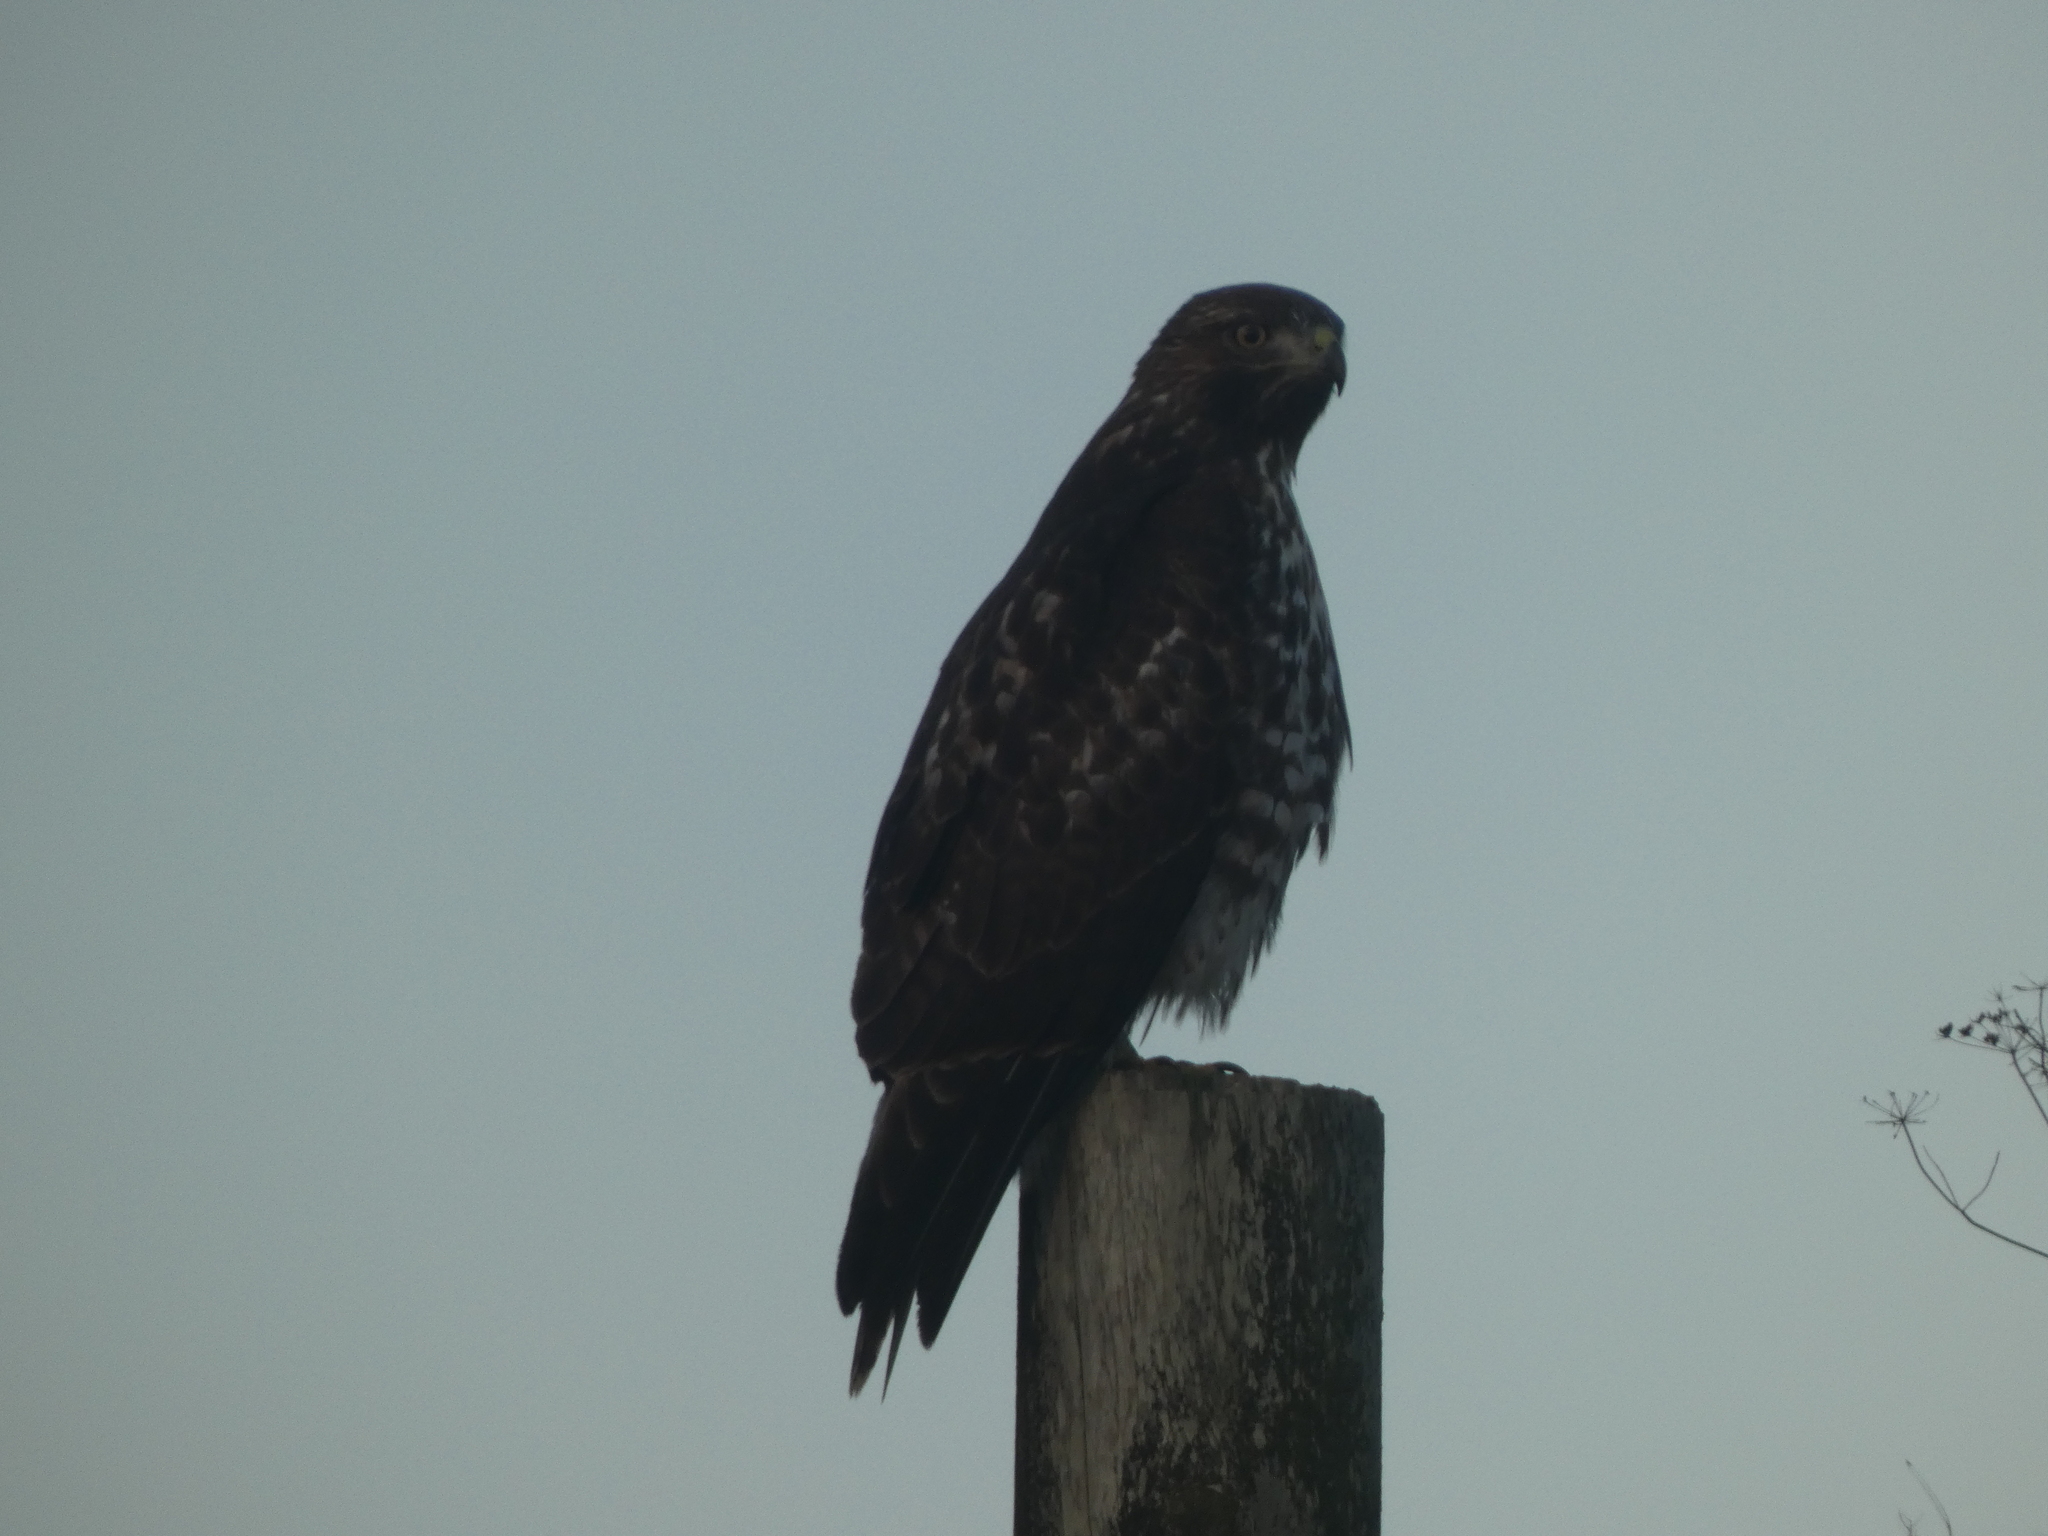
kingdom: Animalia
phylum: Chordata
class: Aves
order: Accipitriformes
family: Accipitridae
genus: Buteo
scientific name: Buteo jamaicensis
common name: Red-tailed hawk
